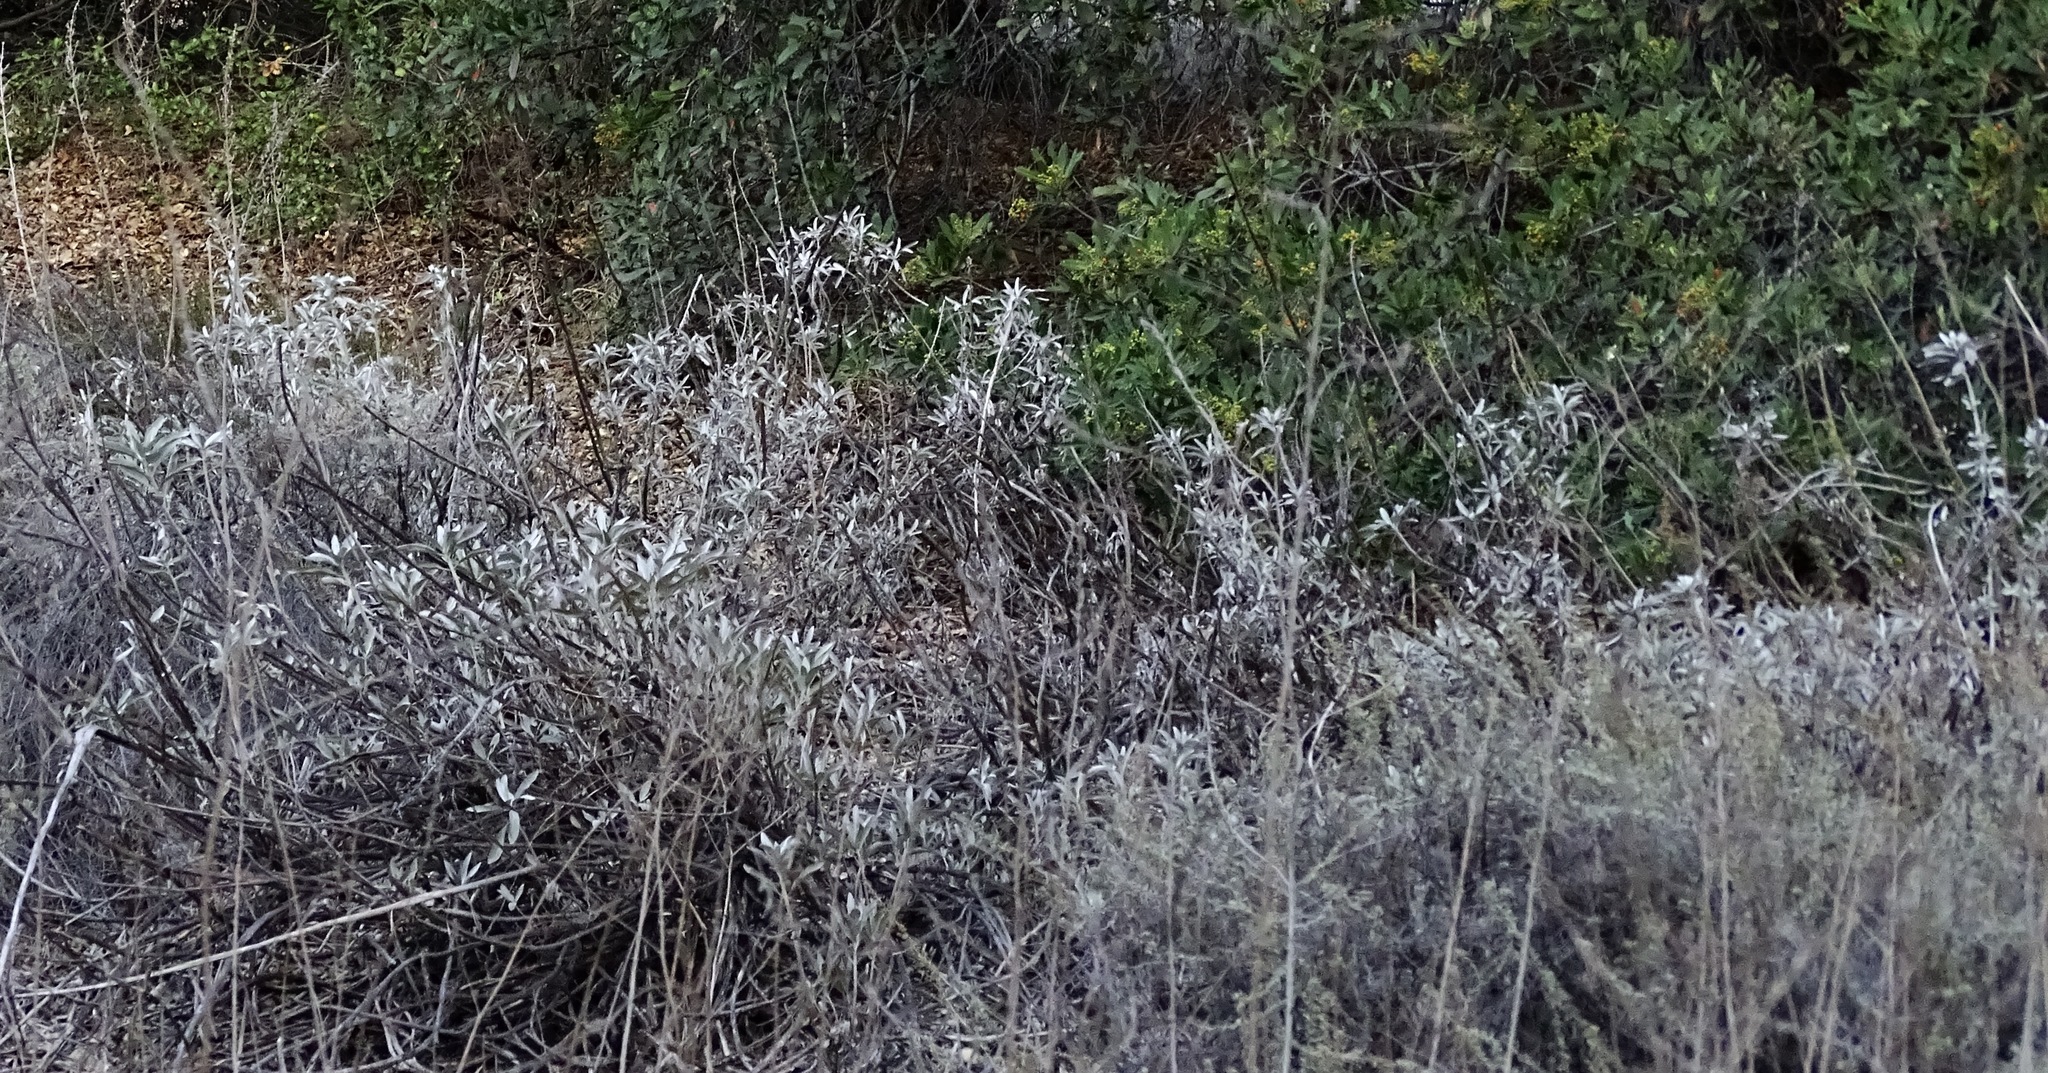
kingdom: Plantae
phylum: Tracheophyta
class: Magnoliopsida
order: Lamiales
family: Lamiaceae
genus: Salvia
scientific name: Salvia apiana
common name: White sage
